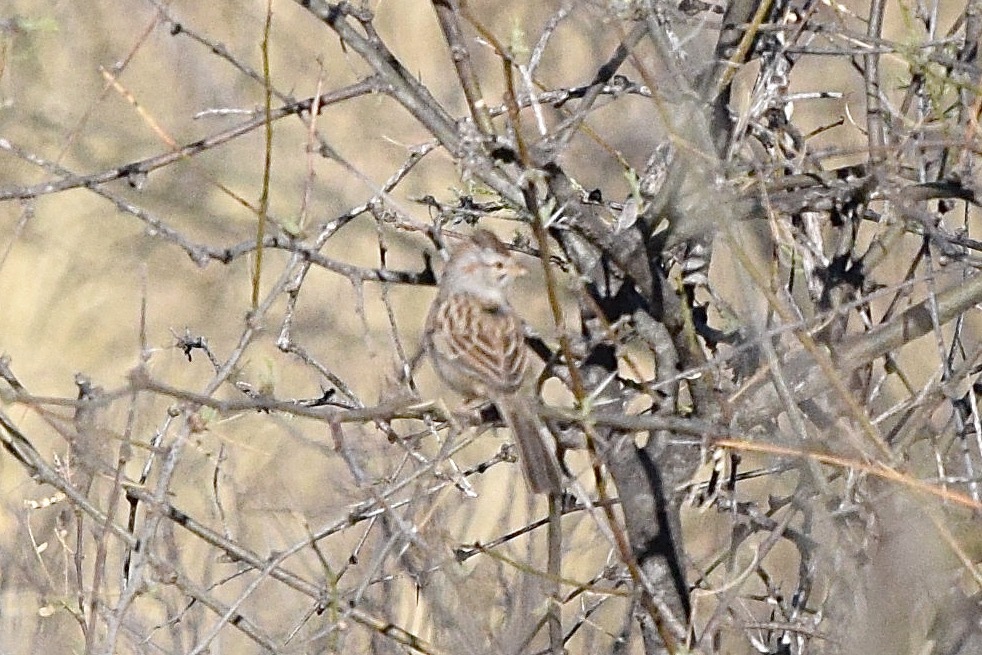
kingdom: Animalia
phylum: Chordata
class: Aves
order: Passeriformes
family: Passerellidae
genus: Peucaea
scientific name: Peucaea carpalis
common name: Rufous-winged sparrow
